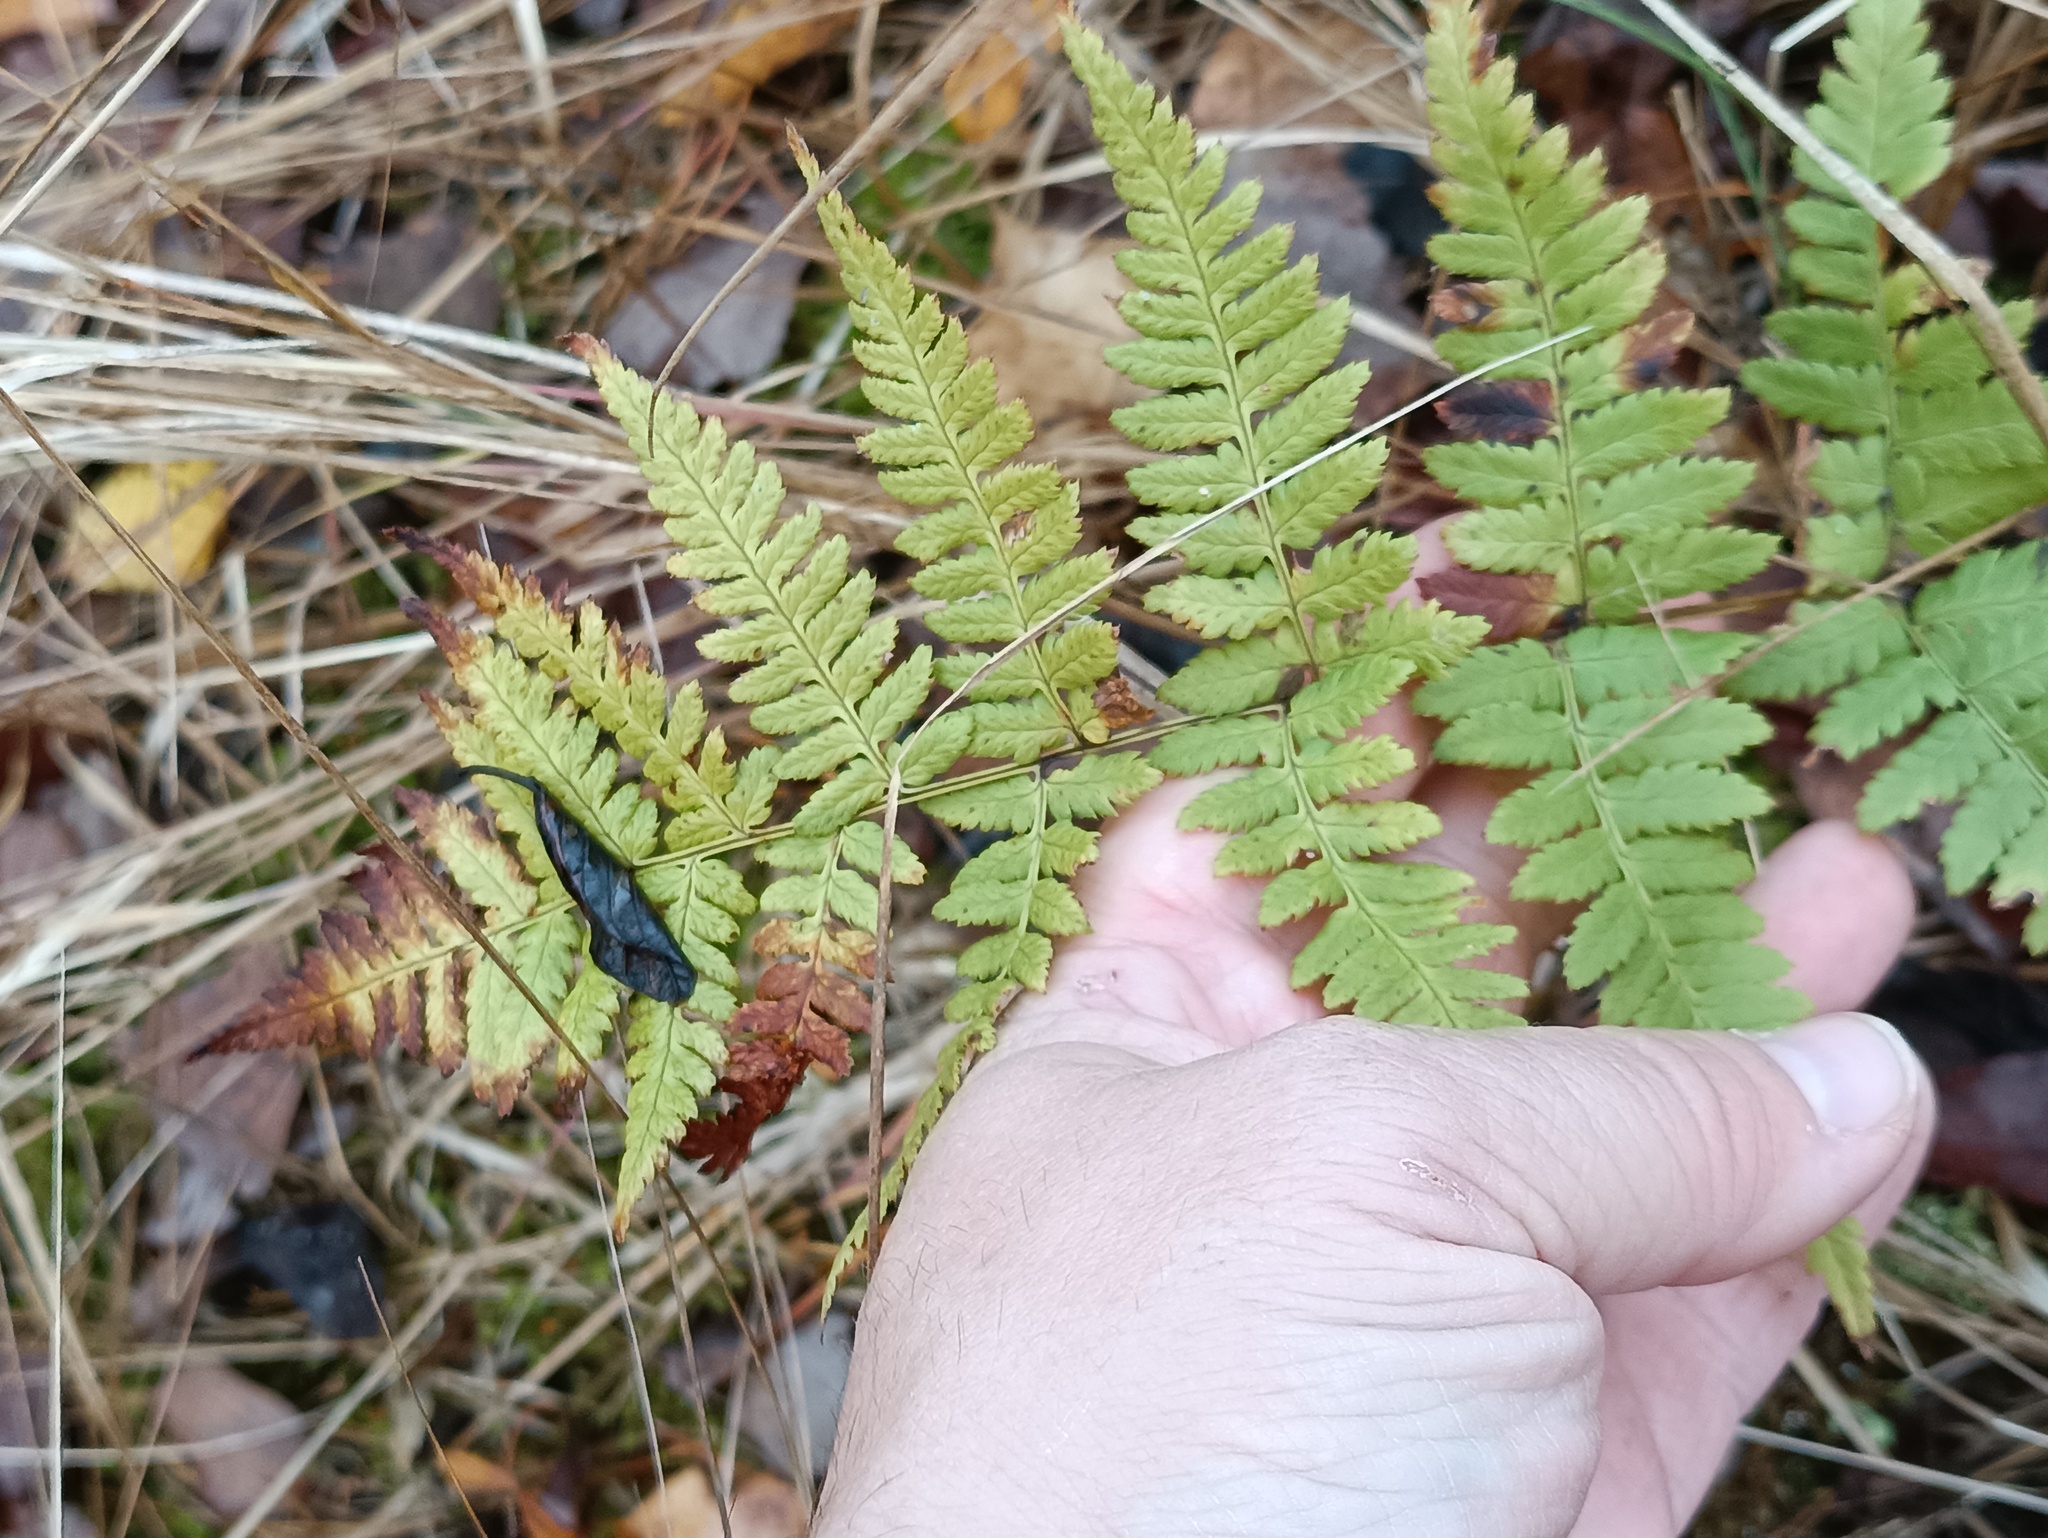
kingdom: Plantae
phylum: Tracheophyta
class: Polypodiopsida
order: Polypodiales
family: Dryopteridaceae
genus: Dryopteris
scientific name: Dryopteris carthusiana
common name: Narrow buckler-fern
